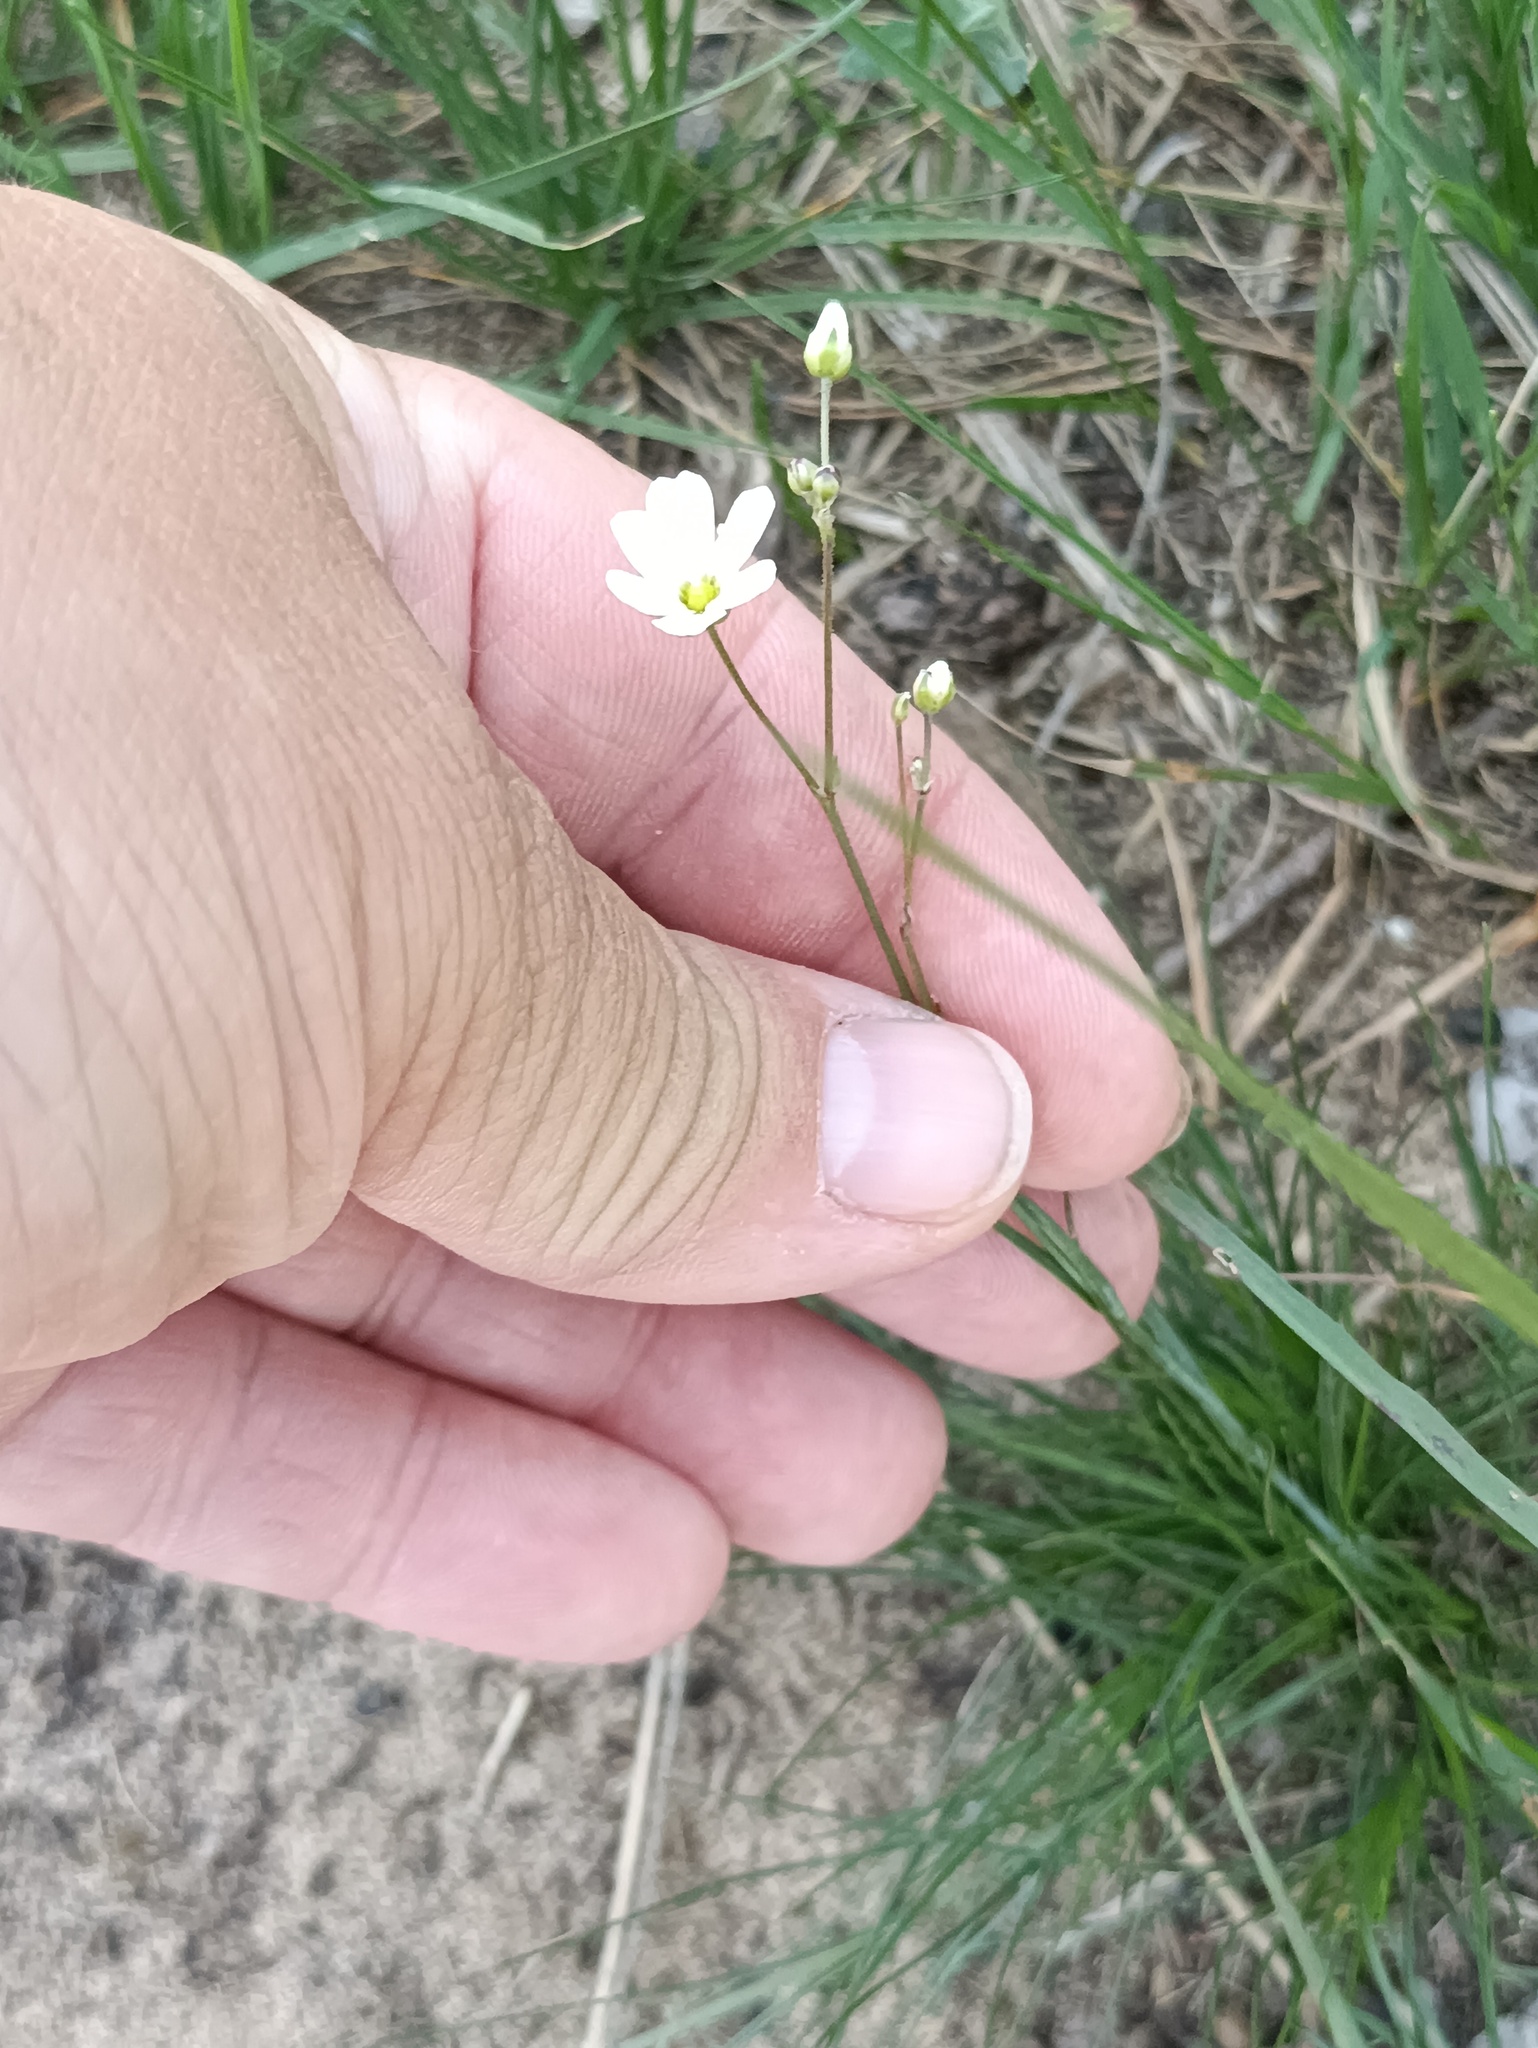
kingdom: Plantae
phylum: Tracheophyta
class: Magnoliopsida
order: Caryophyllales
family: Caryophyllaceae
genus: Eremogone
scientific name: Eremogone biebersteinii
